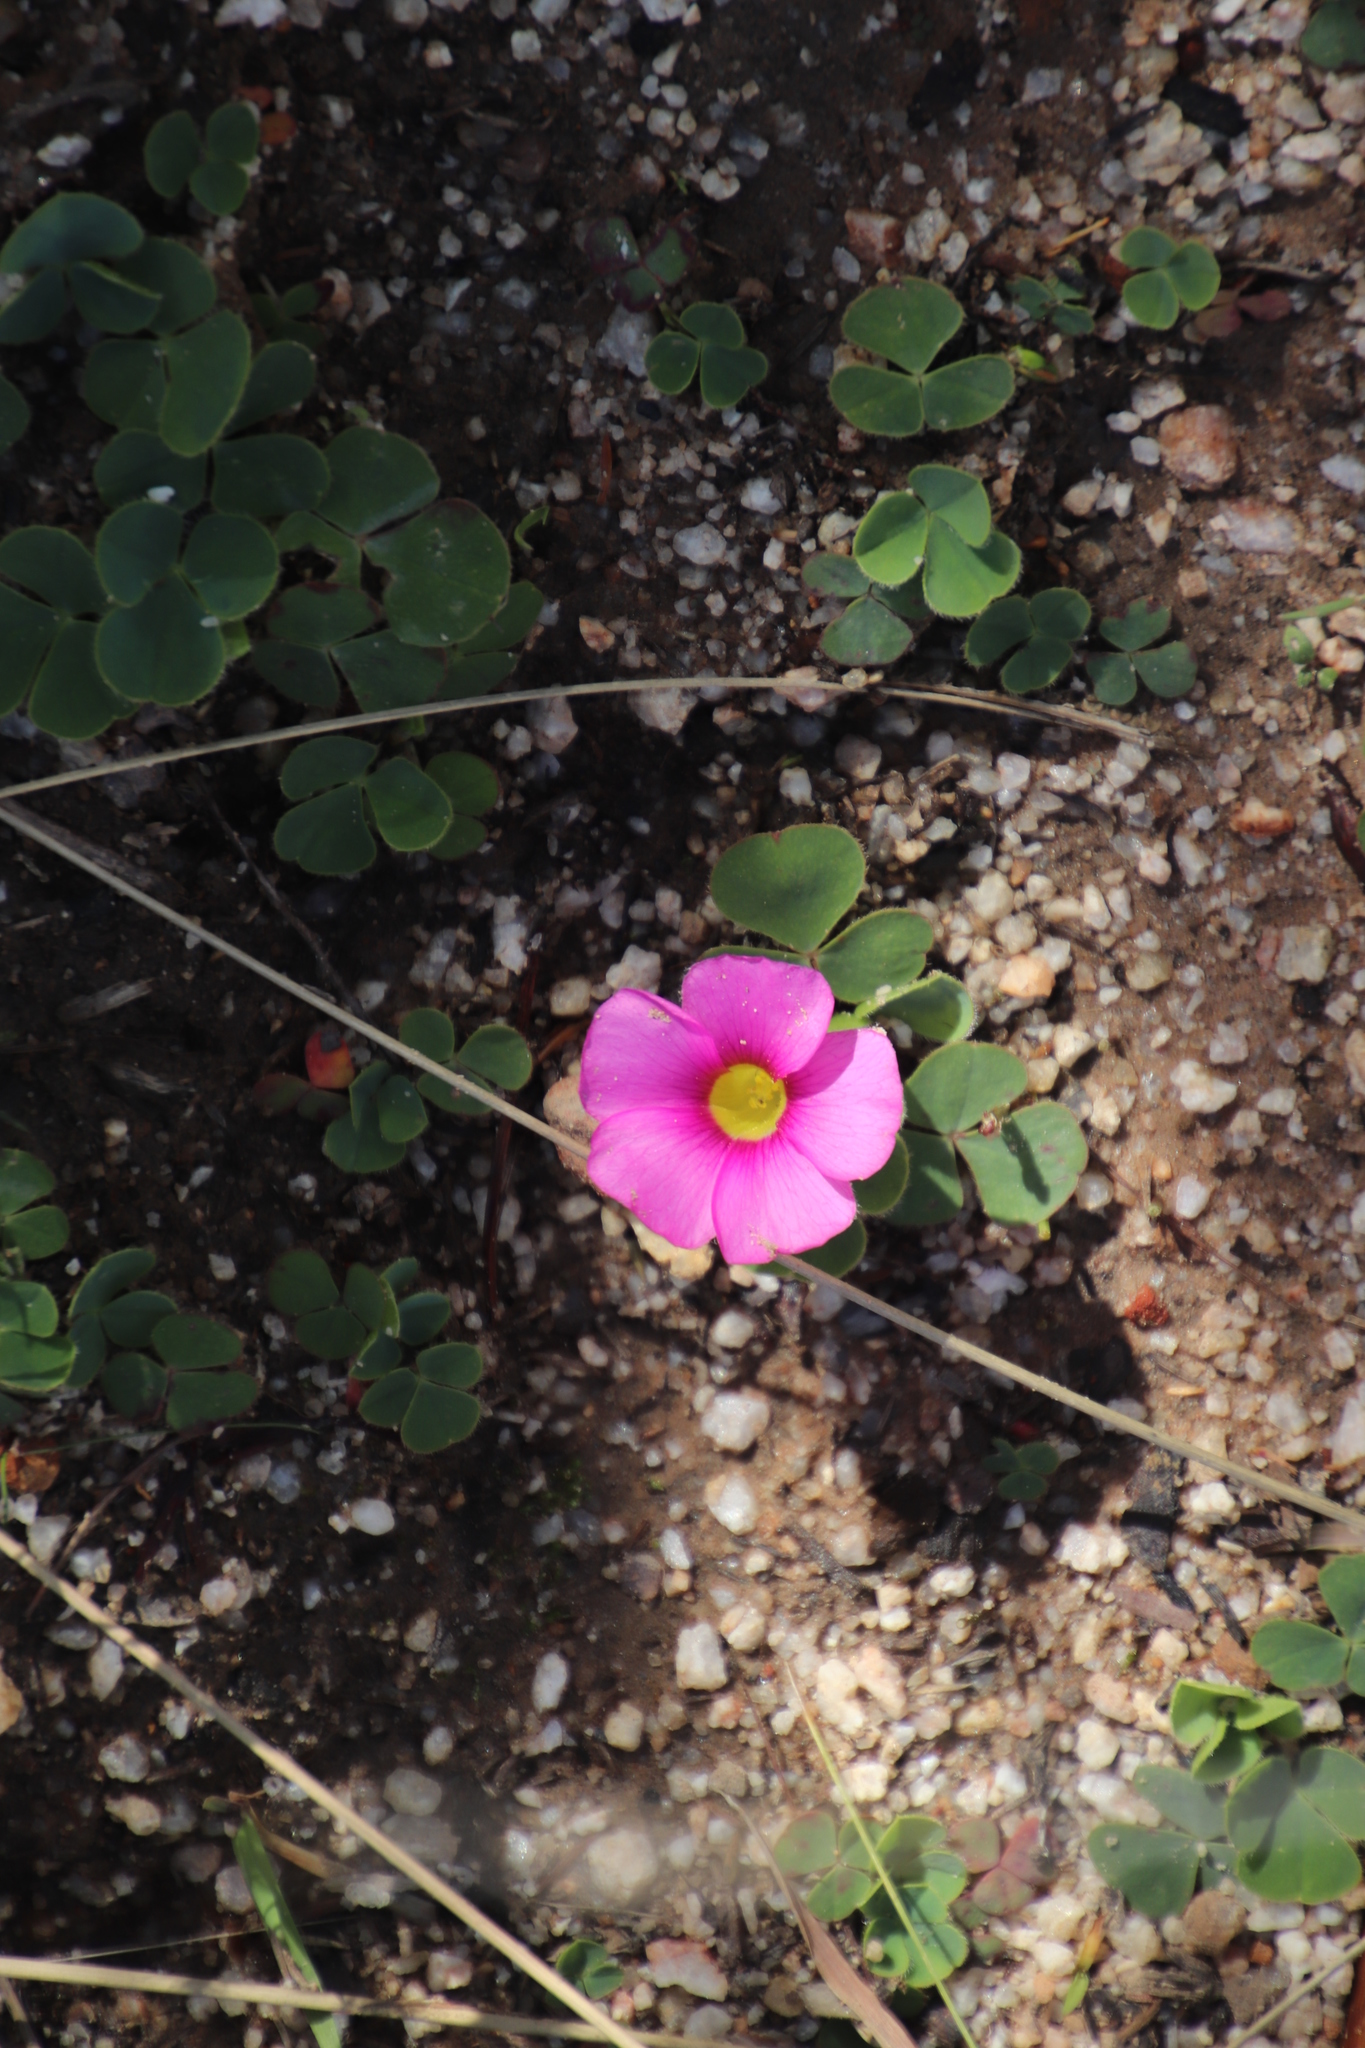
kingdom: Plantae
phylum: Tracheophyta
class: Magnoliopsida
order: Oxalidales
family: Oxalidaceae
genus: Oxalis
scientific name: Oxalis purpurea
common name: Purple woodsorrel
